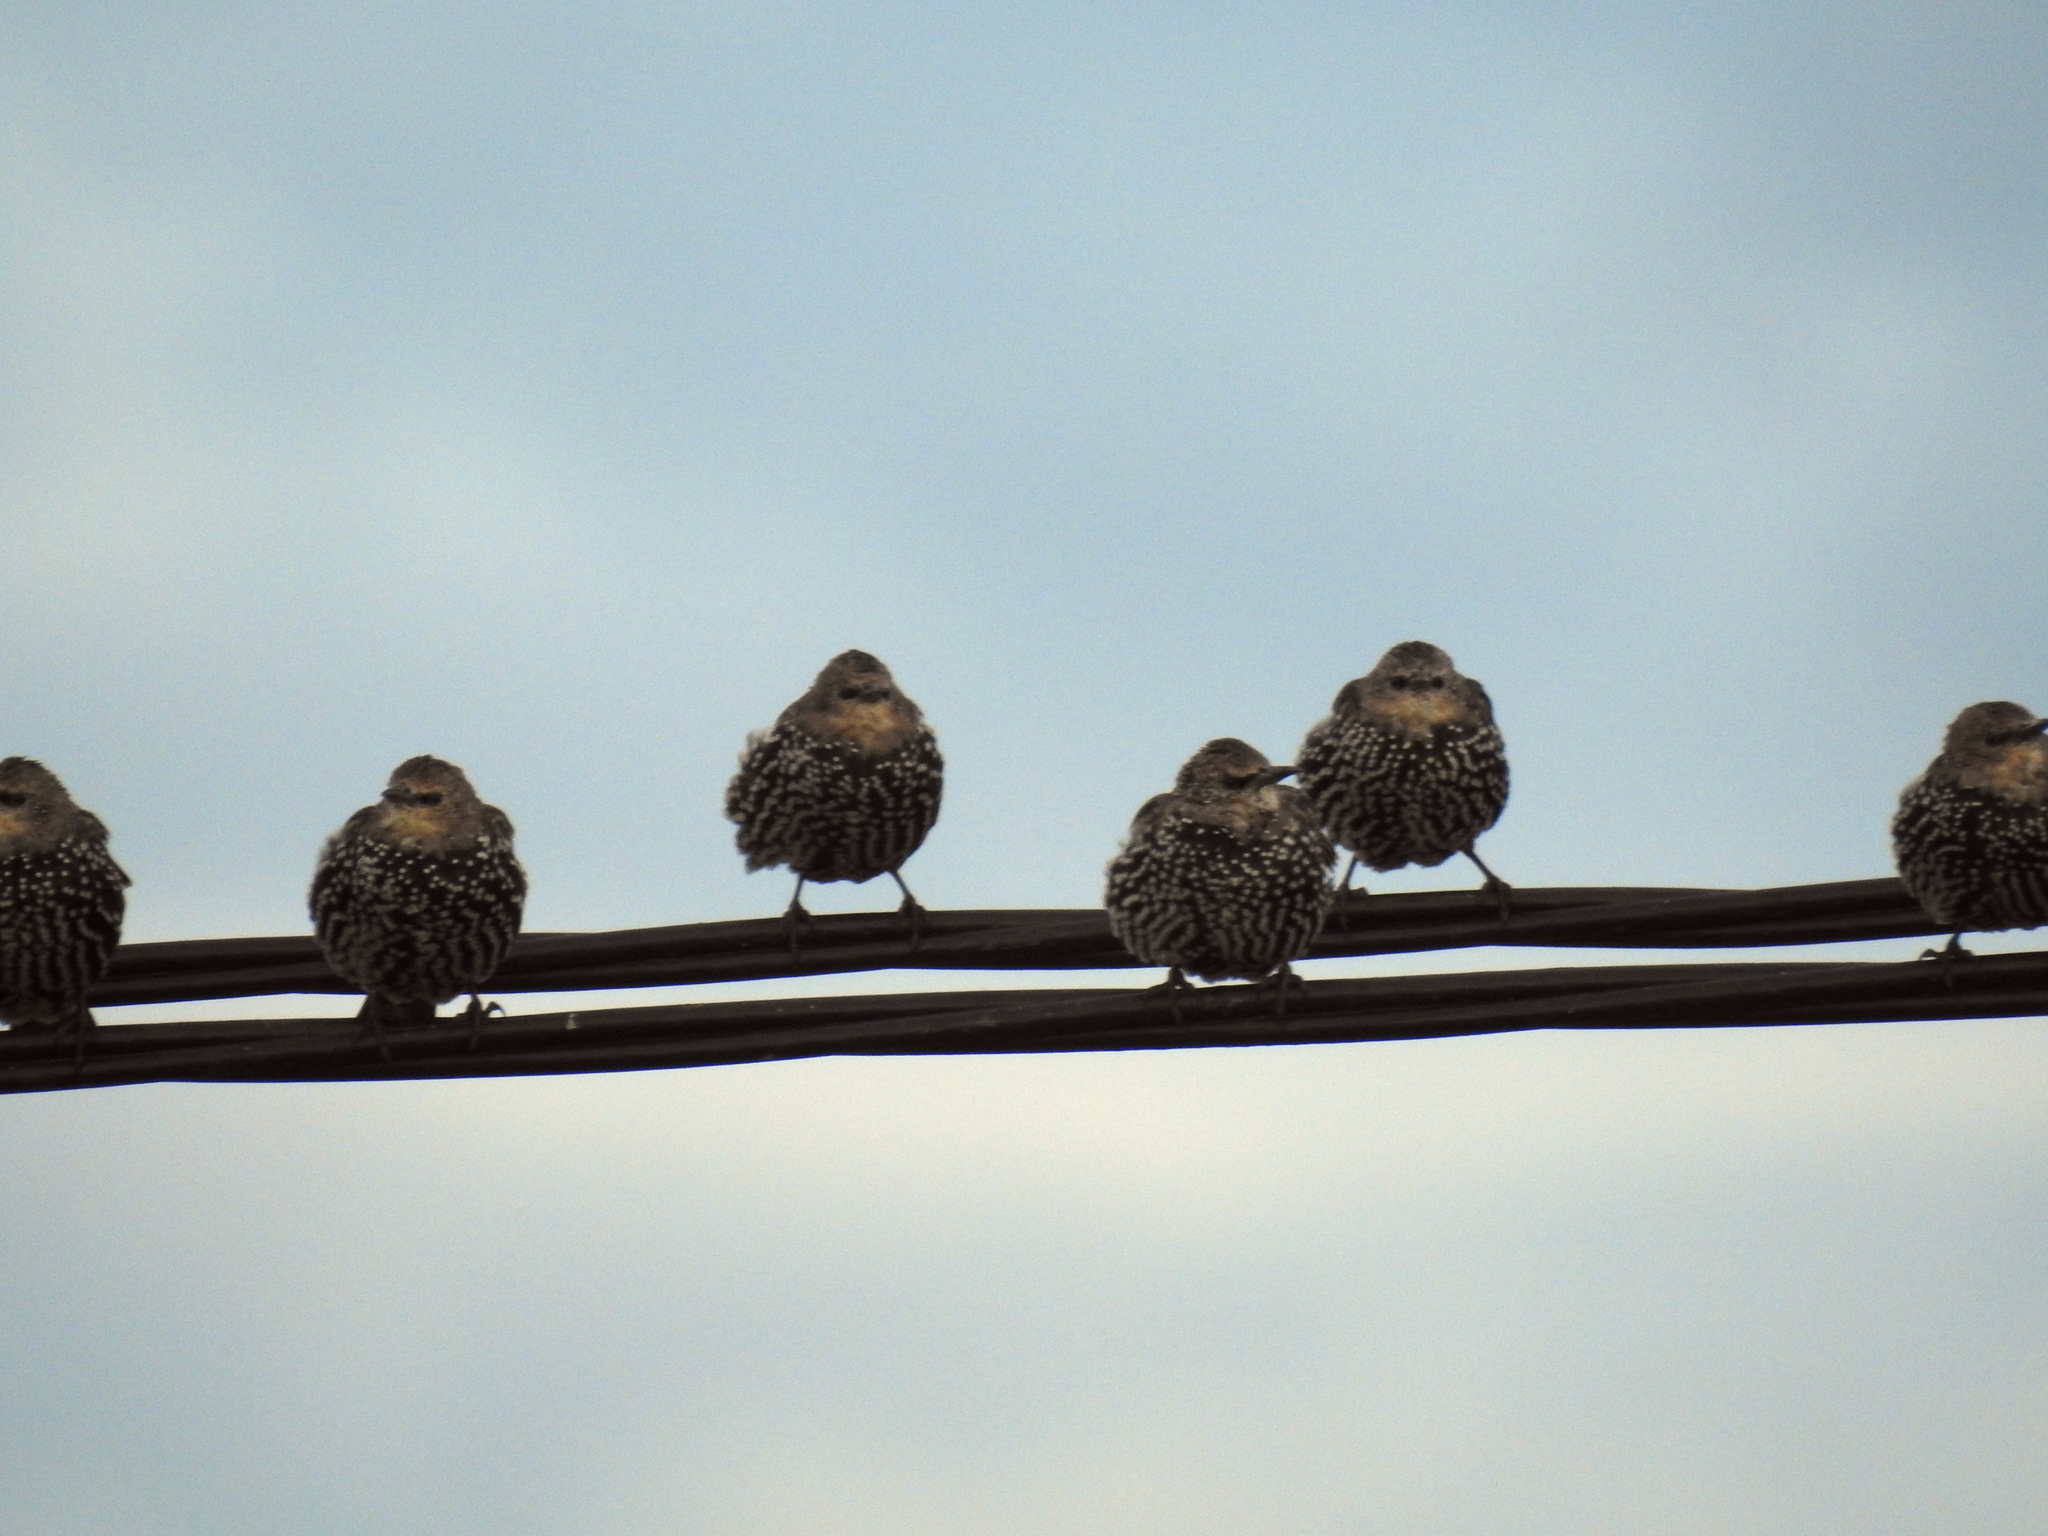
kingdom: Animalia
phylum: Chordata
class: Aves
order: Passeriformes
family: Sturnidae
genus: Sturnus
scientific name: Sturnus vulgaris
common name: Common starling
